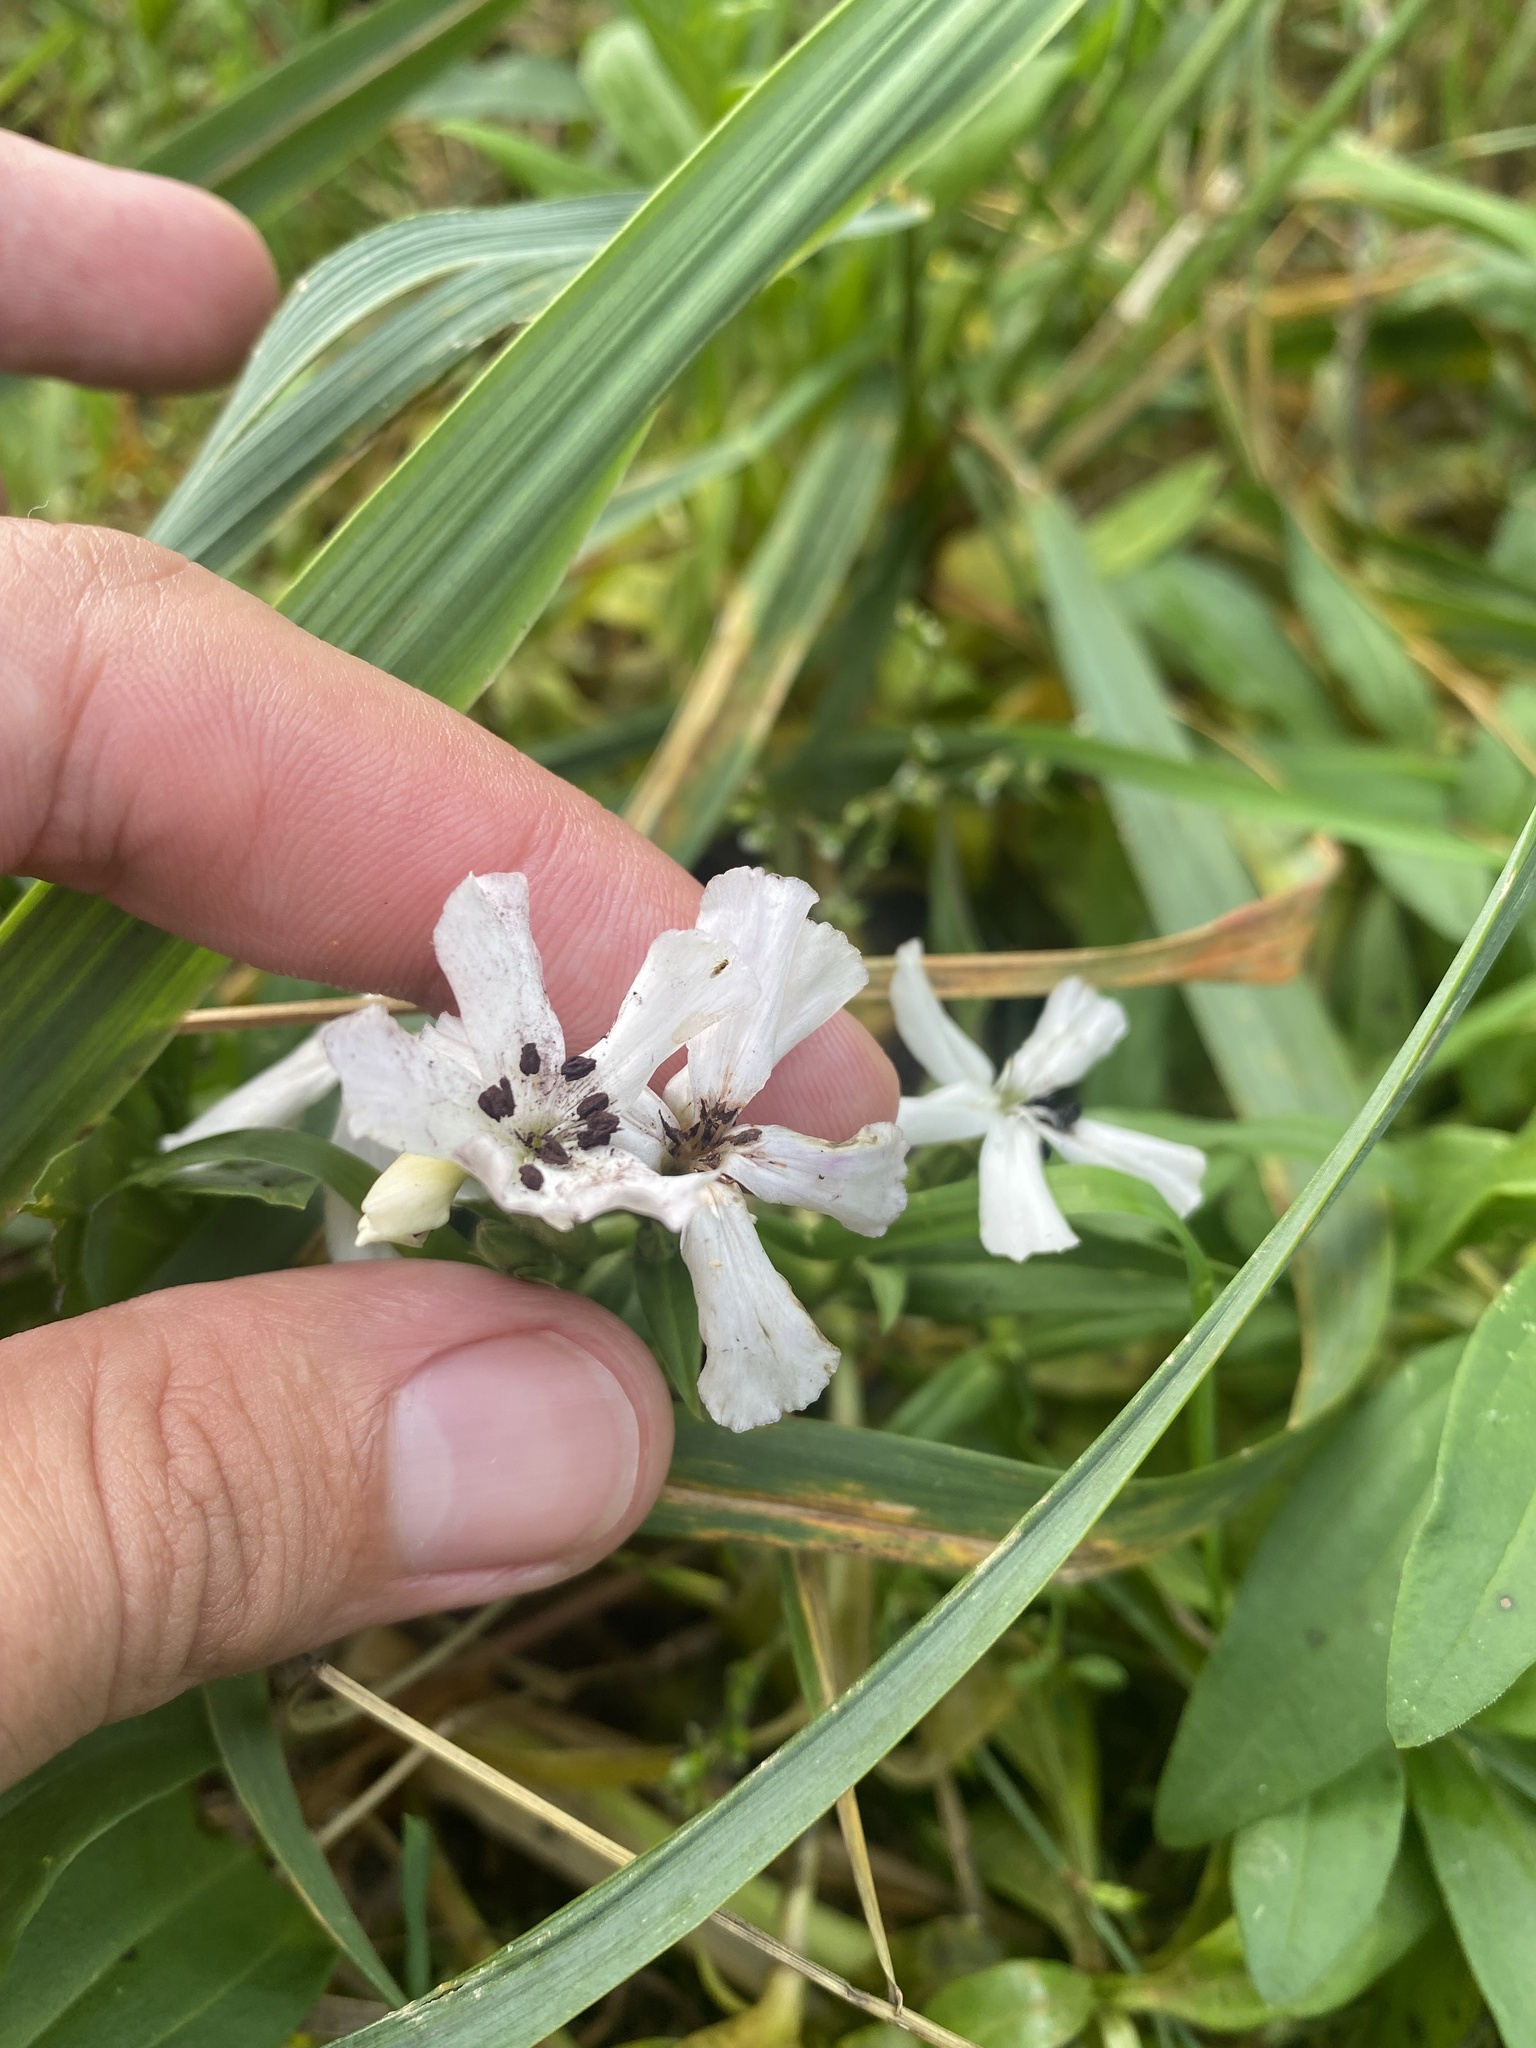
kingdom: Plantae
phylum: Tracheophyta
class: Magnoliopsida
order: Caryophyllales
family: Caryophyllaceae
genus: Saponaria
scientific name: Saponaria officinalis
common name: Soapwort
